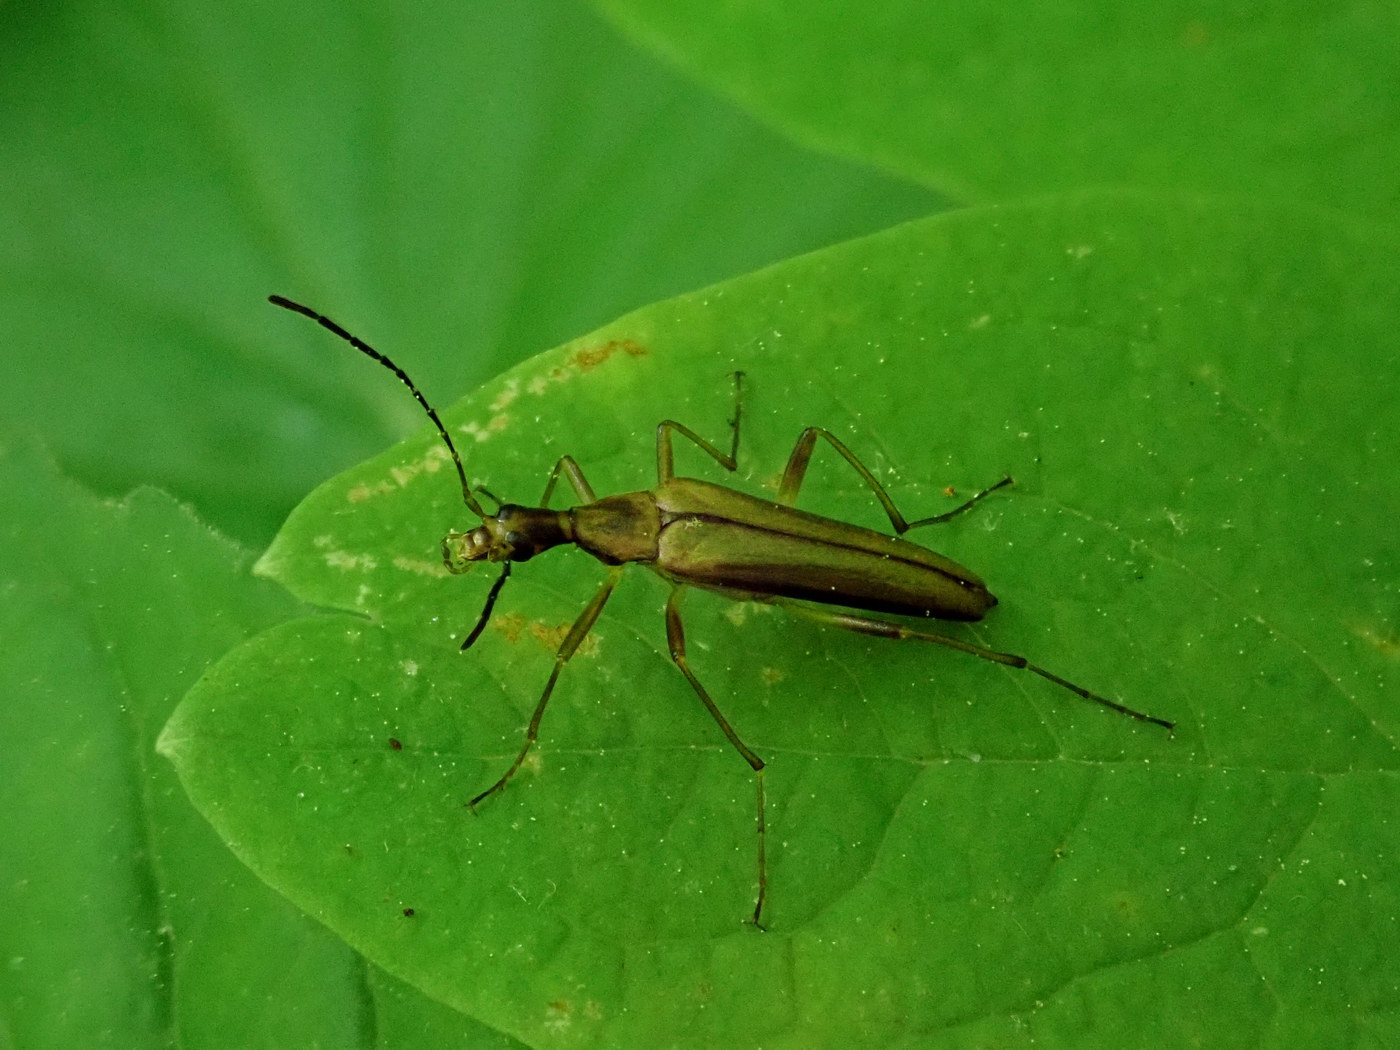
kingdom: Animalia
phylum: Arthropoda
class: Insecta
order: Coleoptera
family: Stenotrachelidae
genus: Cephaloon
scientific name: Cephaloon ungulare
